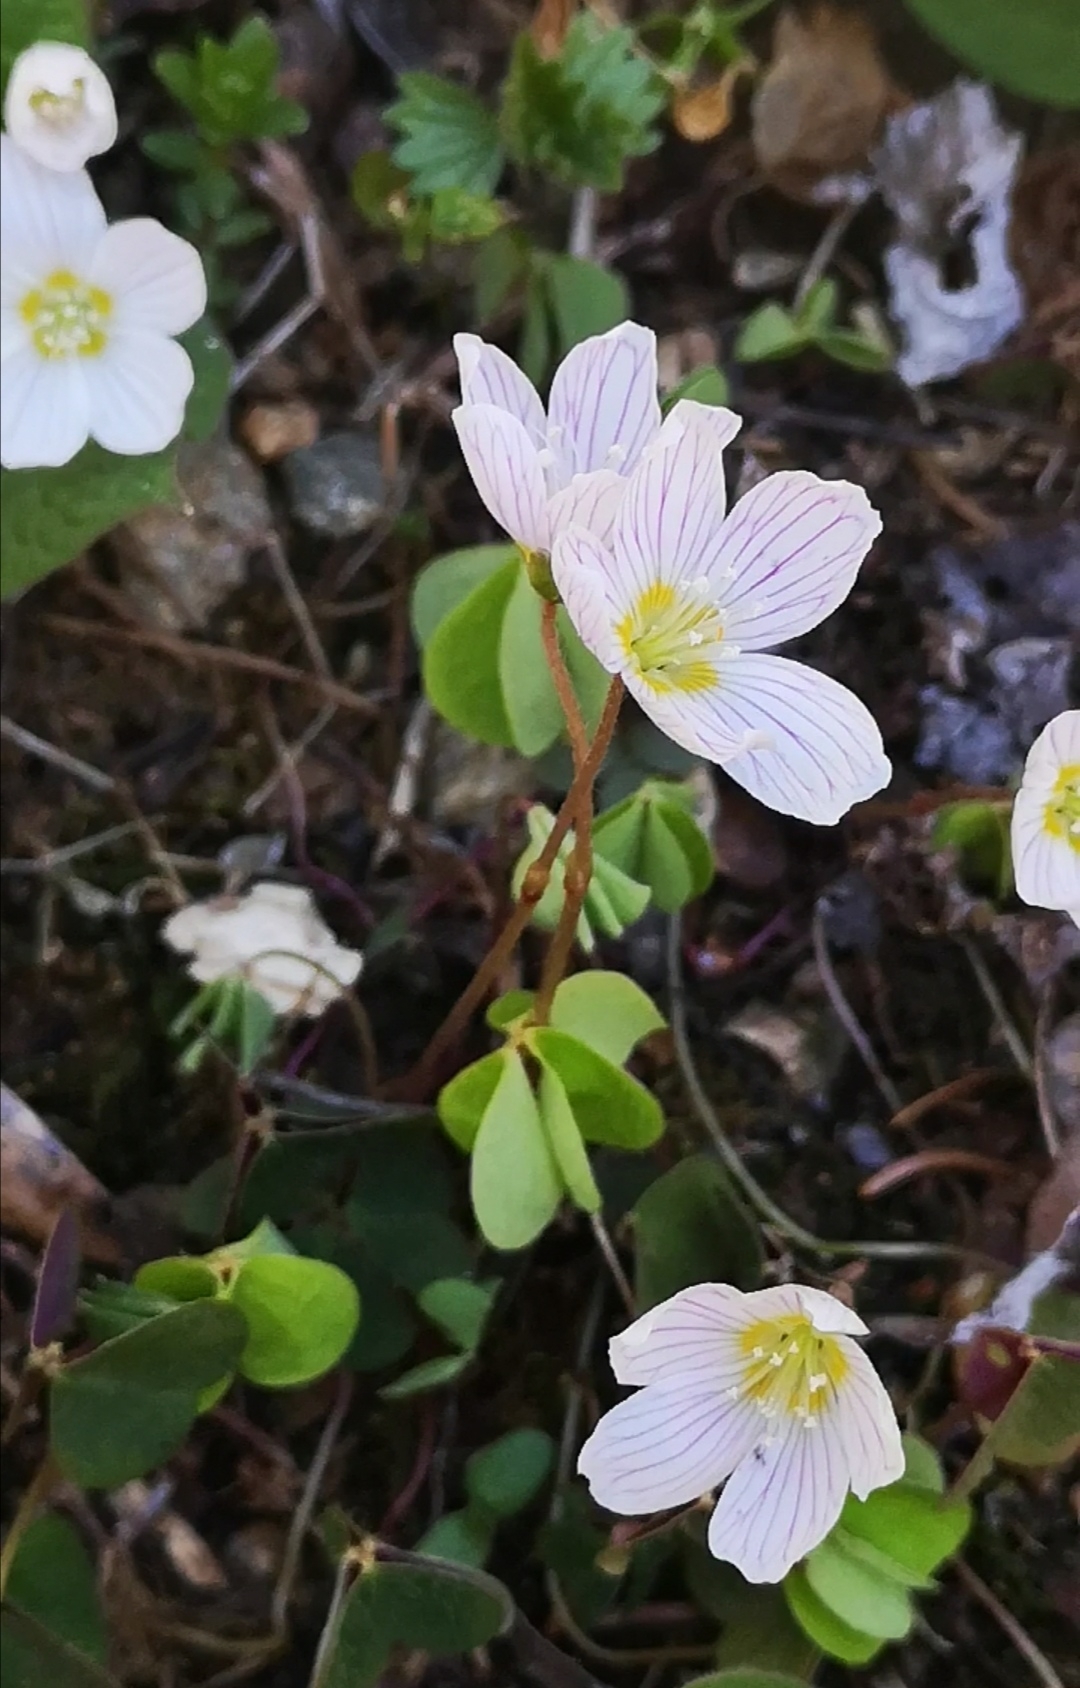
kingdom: Plantae
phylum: Tracheophyta
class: Magnoliopsida
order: Oxalidales
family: Oxalidaceae
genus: Oxalis
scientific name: Oxalis acetosella
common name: Wood-sorrel
